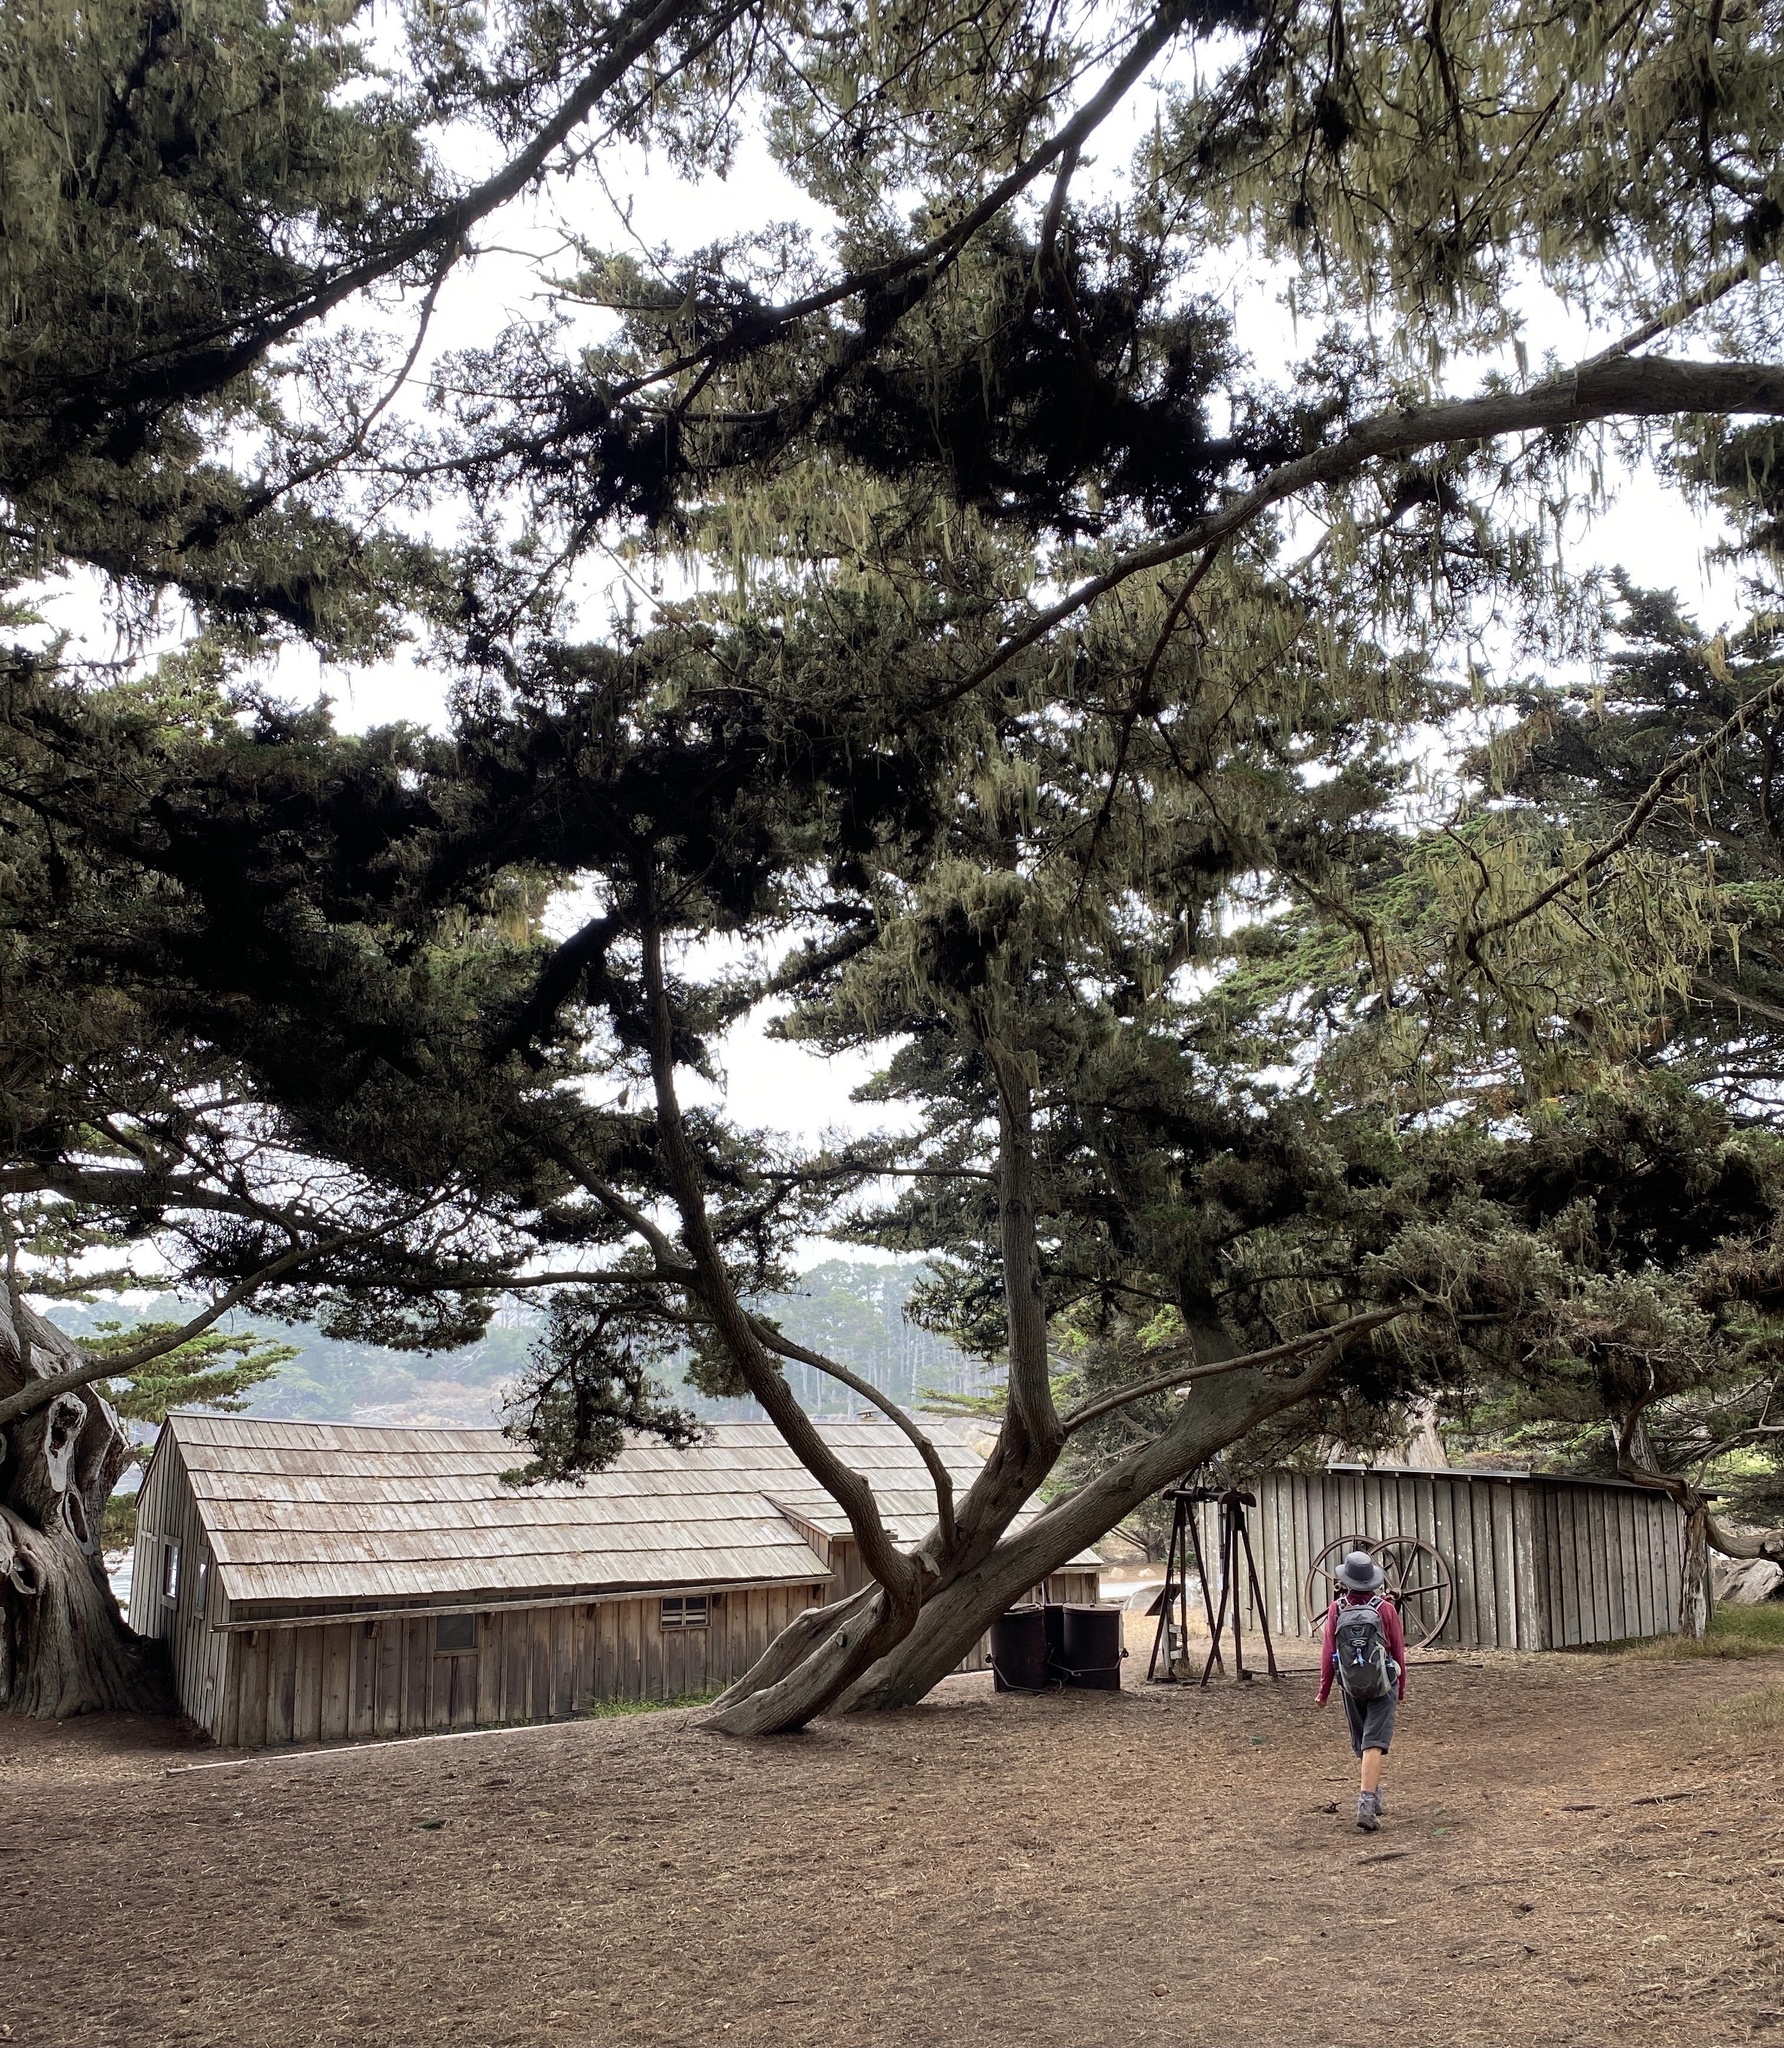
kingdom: Plantae
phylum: Tracheophyta
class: Pinopsida
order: Pinales
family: Cupressaceae
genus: Cupressus
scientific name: Cupressus macrocarpa
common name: Monterey cypress
